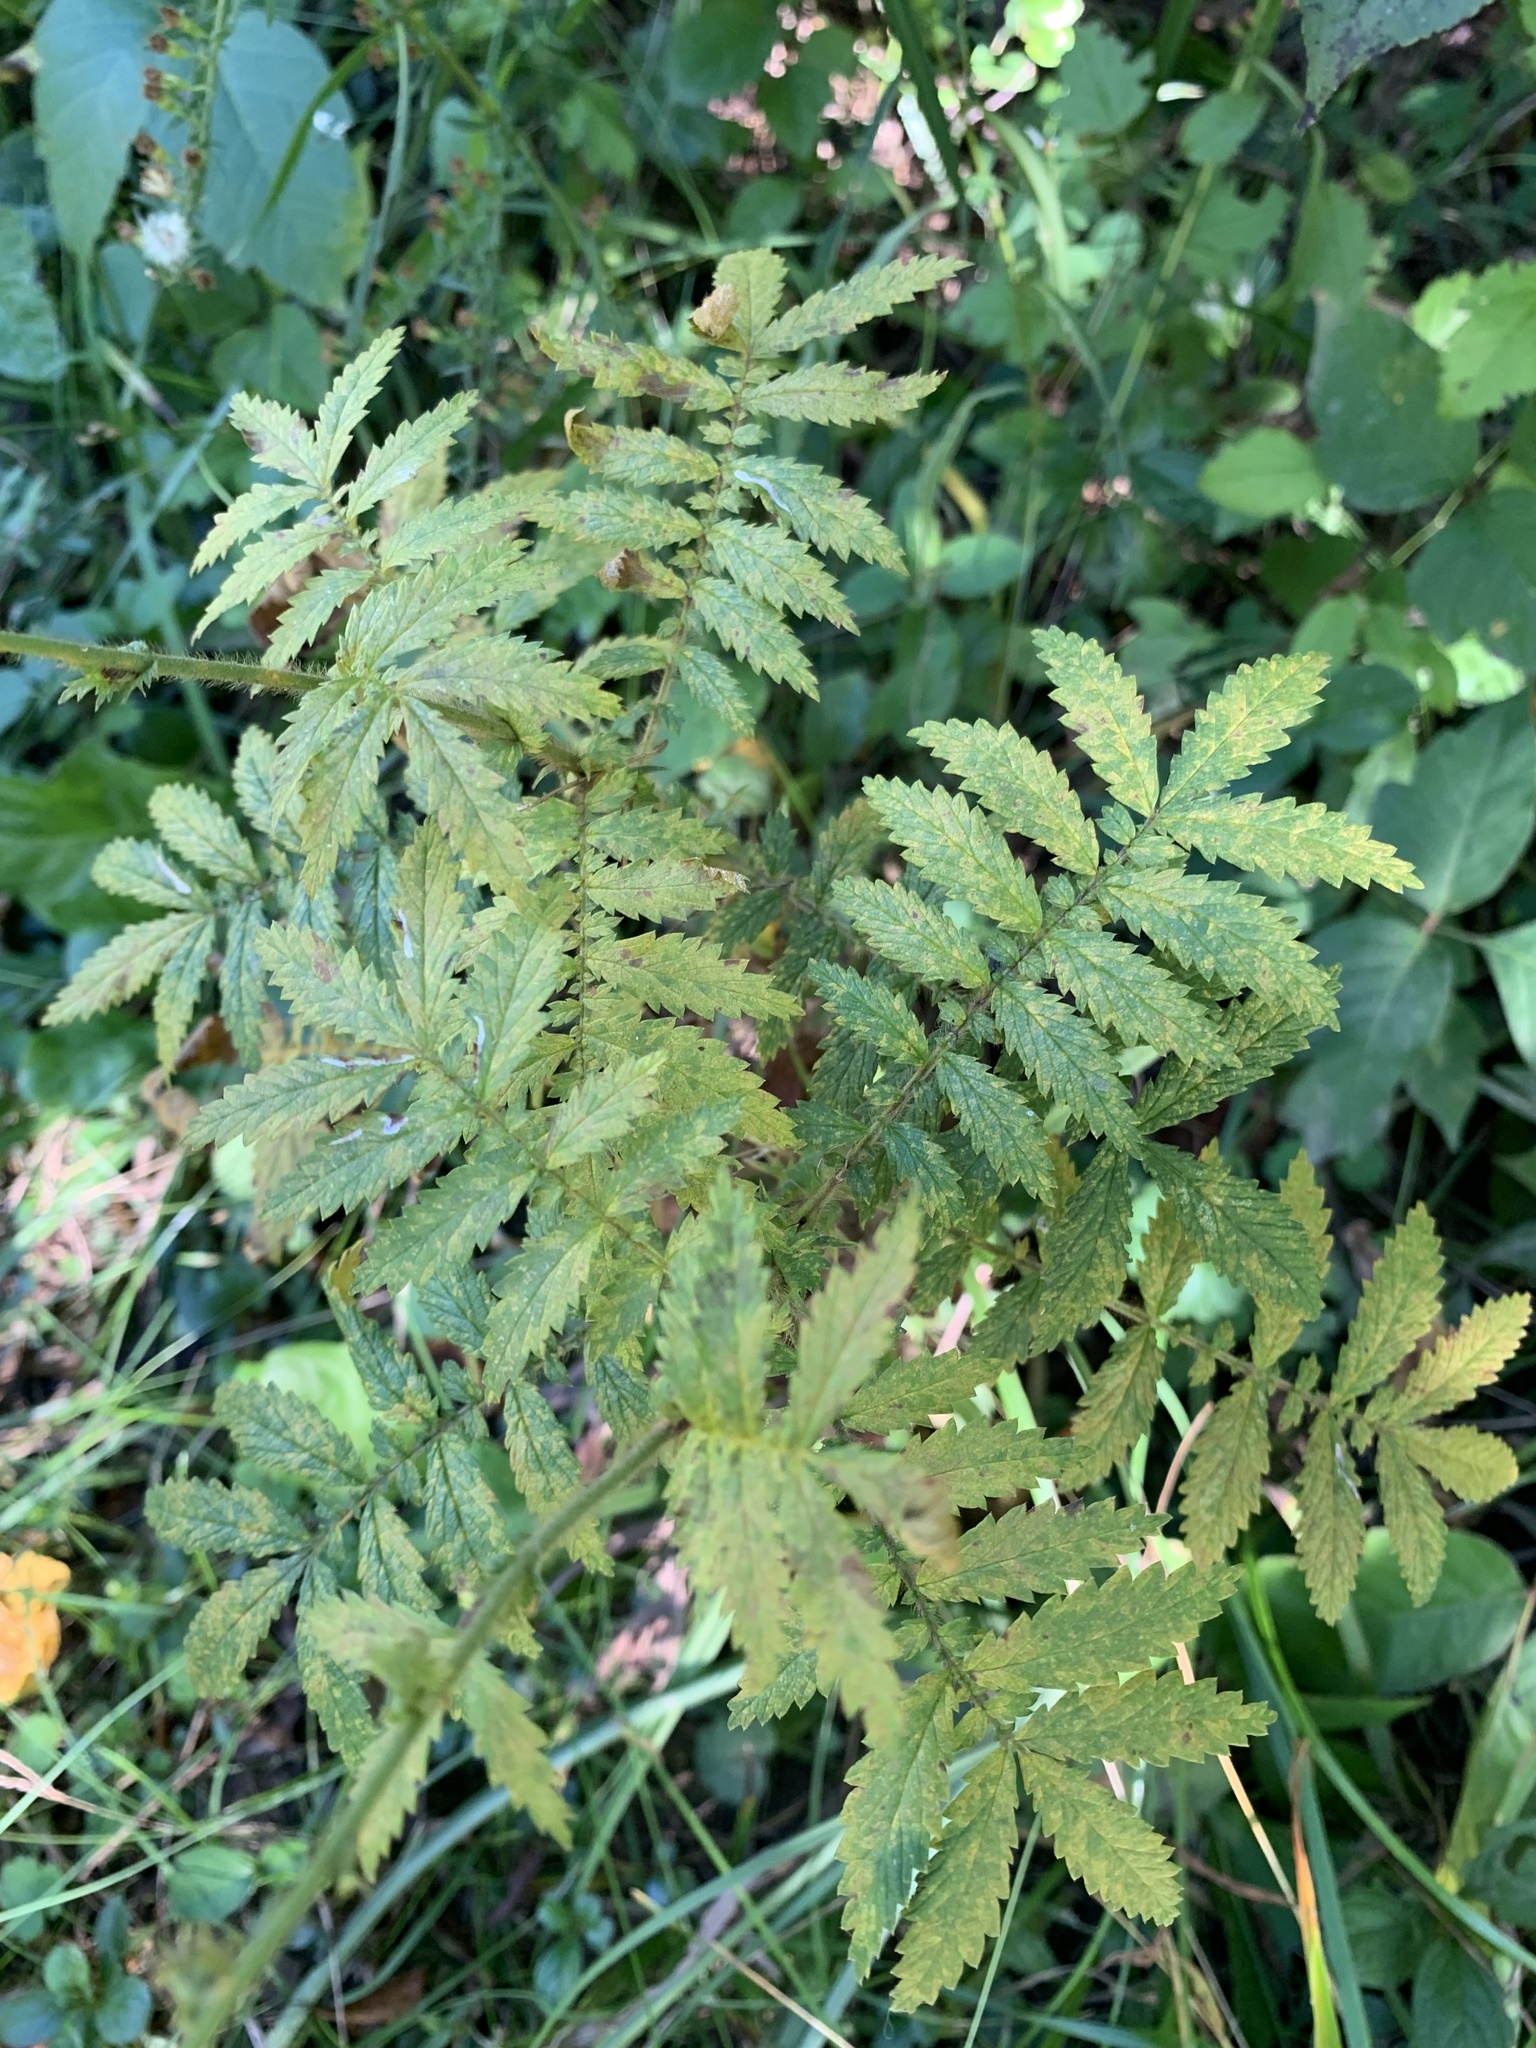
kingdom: Plantae
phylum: Tracheophyta
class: Magnoliopsida
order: Rosales
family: Rosaceae
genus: Agrimonia
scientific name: Agrimonia parviflora
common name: Harvest-lice
